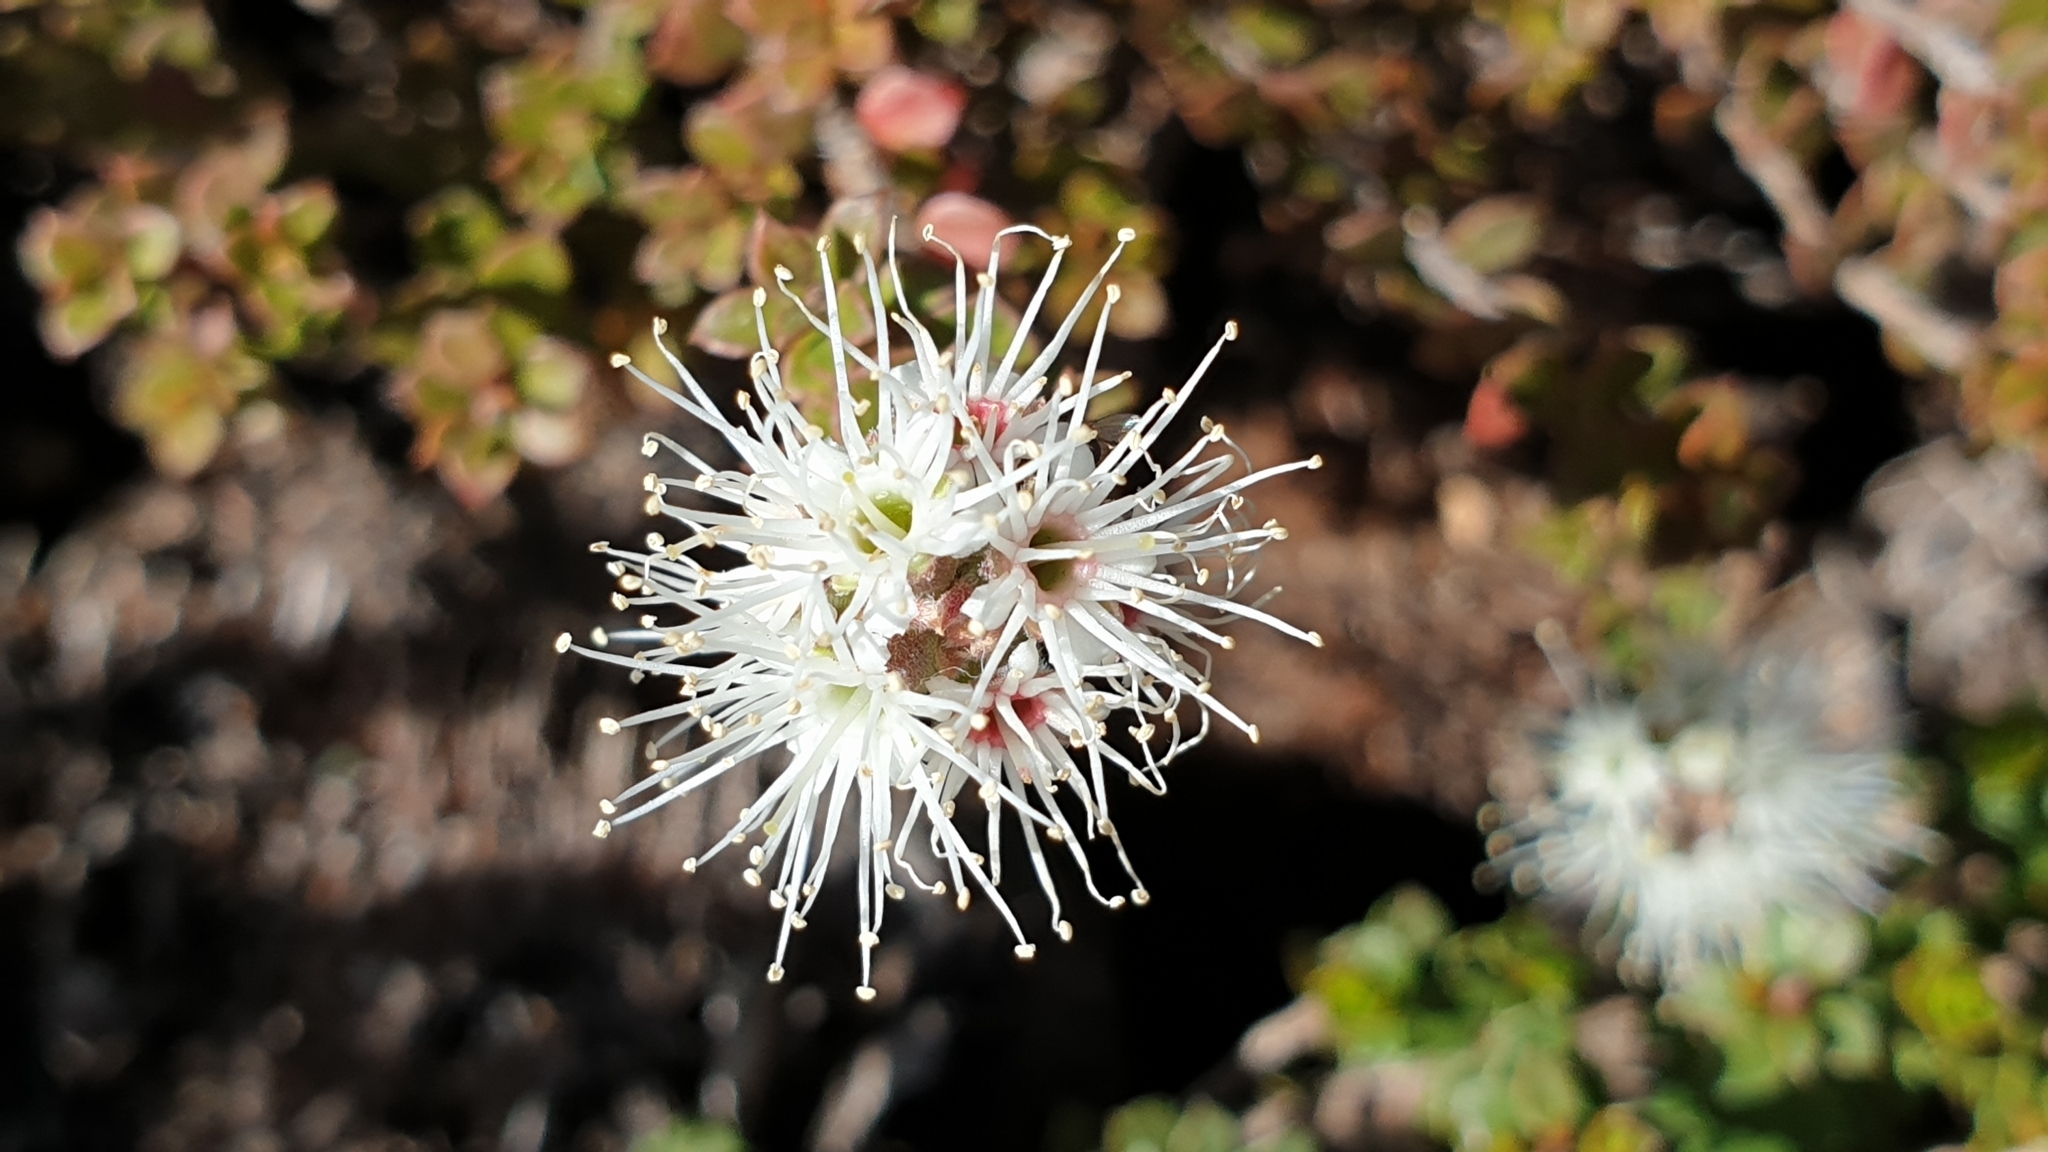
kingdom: Plantae
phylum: Tracheophyta
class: Magnoliopsida
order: Myrtales
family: Myrtaceae
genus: Kunzea
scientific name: Kunzea pomifera
